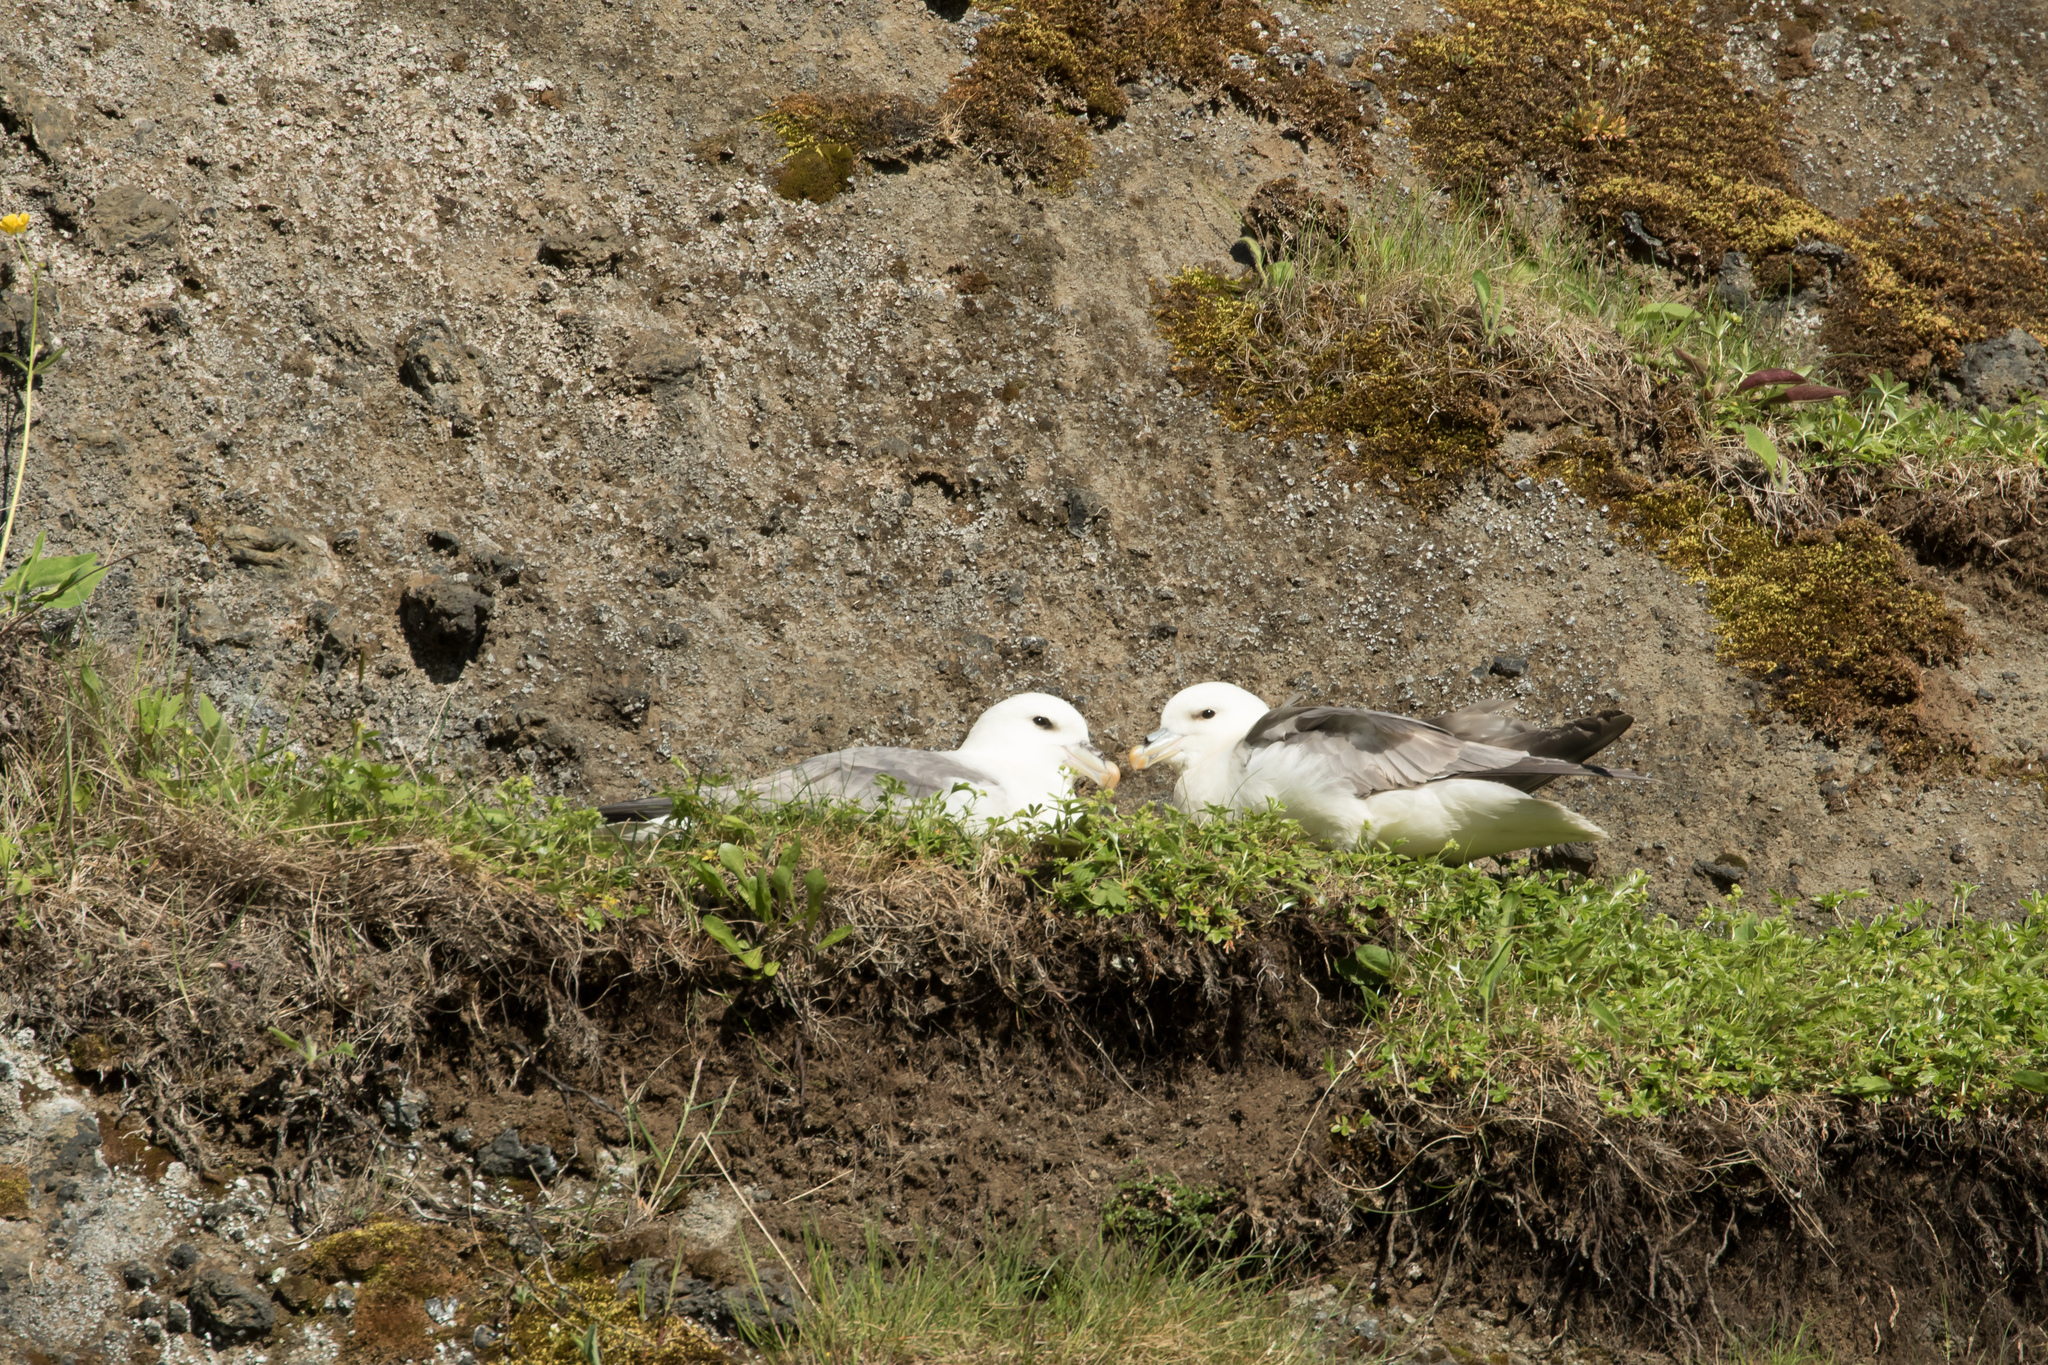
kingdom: Animalia
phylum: Chordata
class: Aves
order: Procellariiformes
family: Procellariidae
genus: Fulmarus
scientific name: Fulmarus glacialis
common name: Northern fulmar
